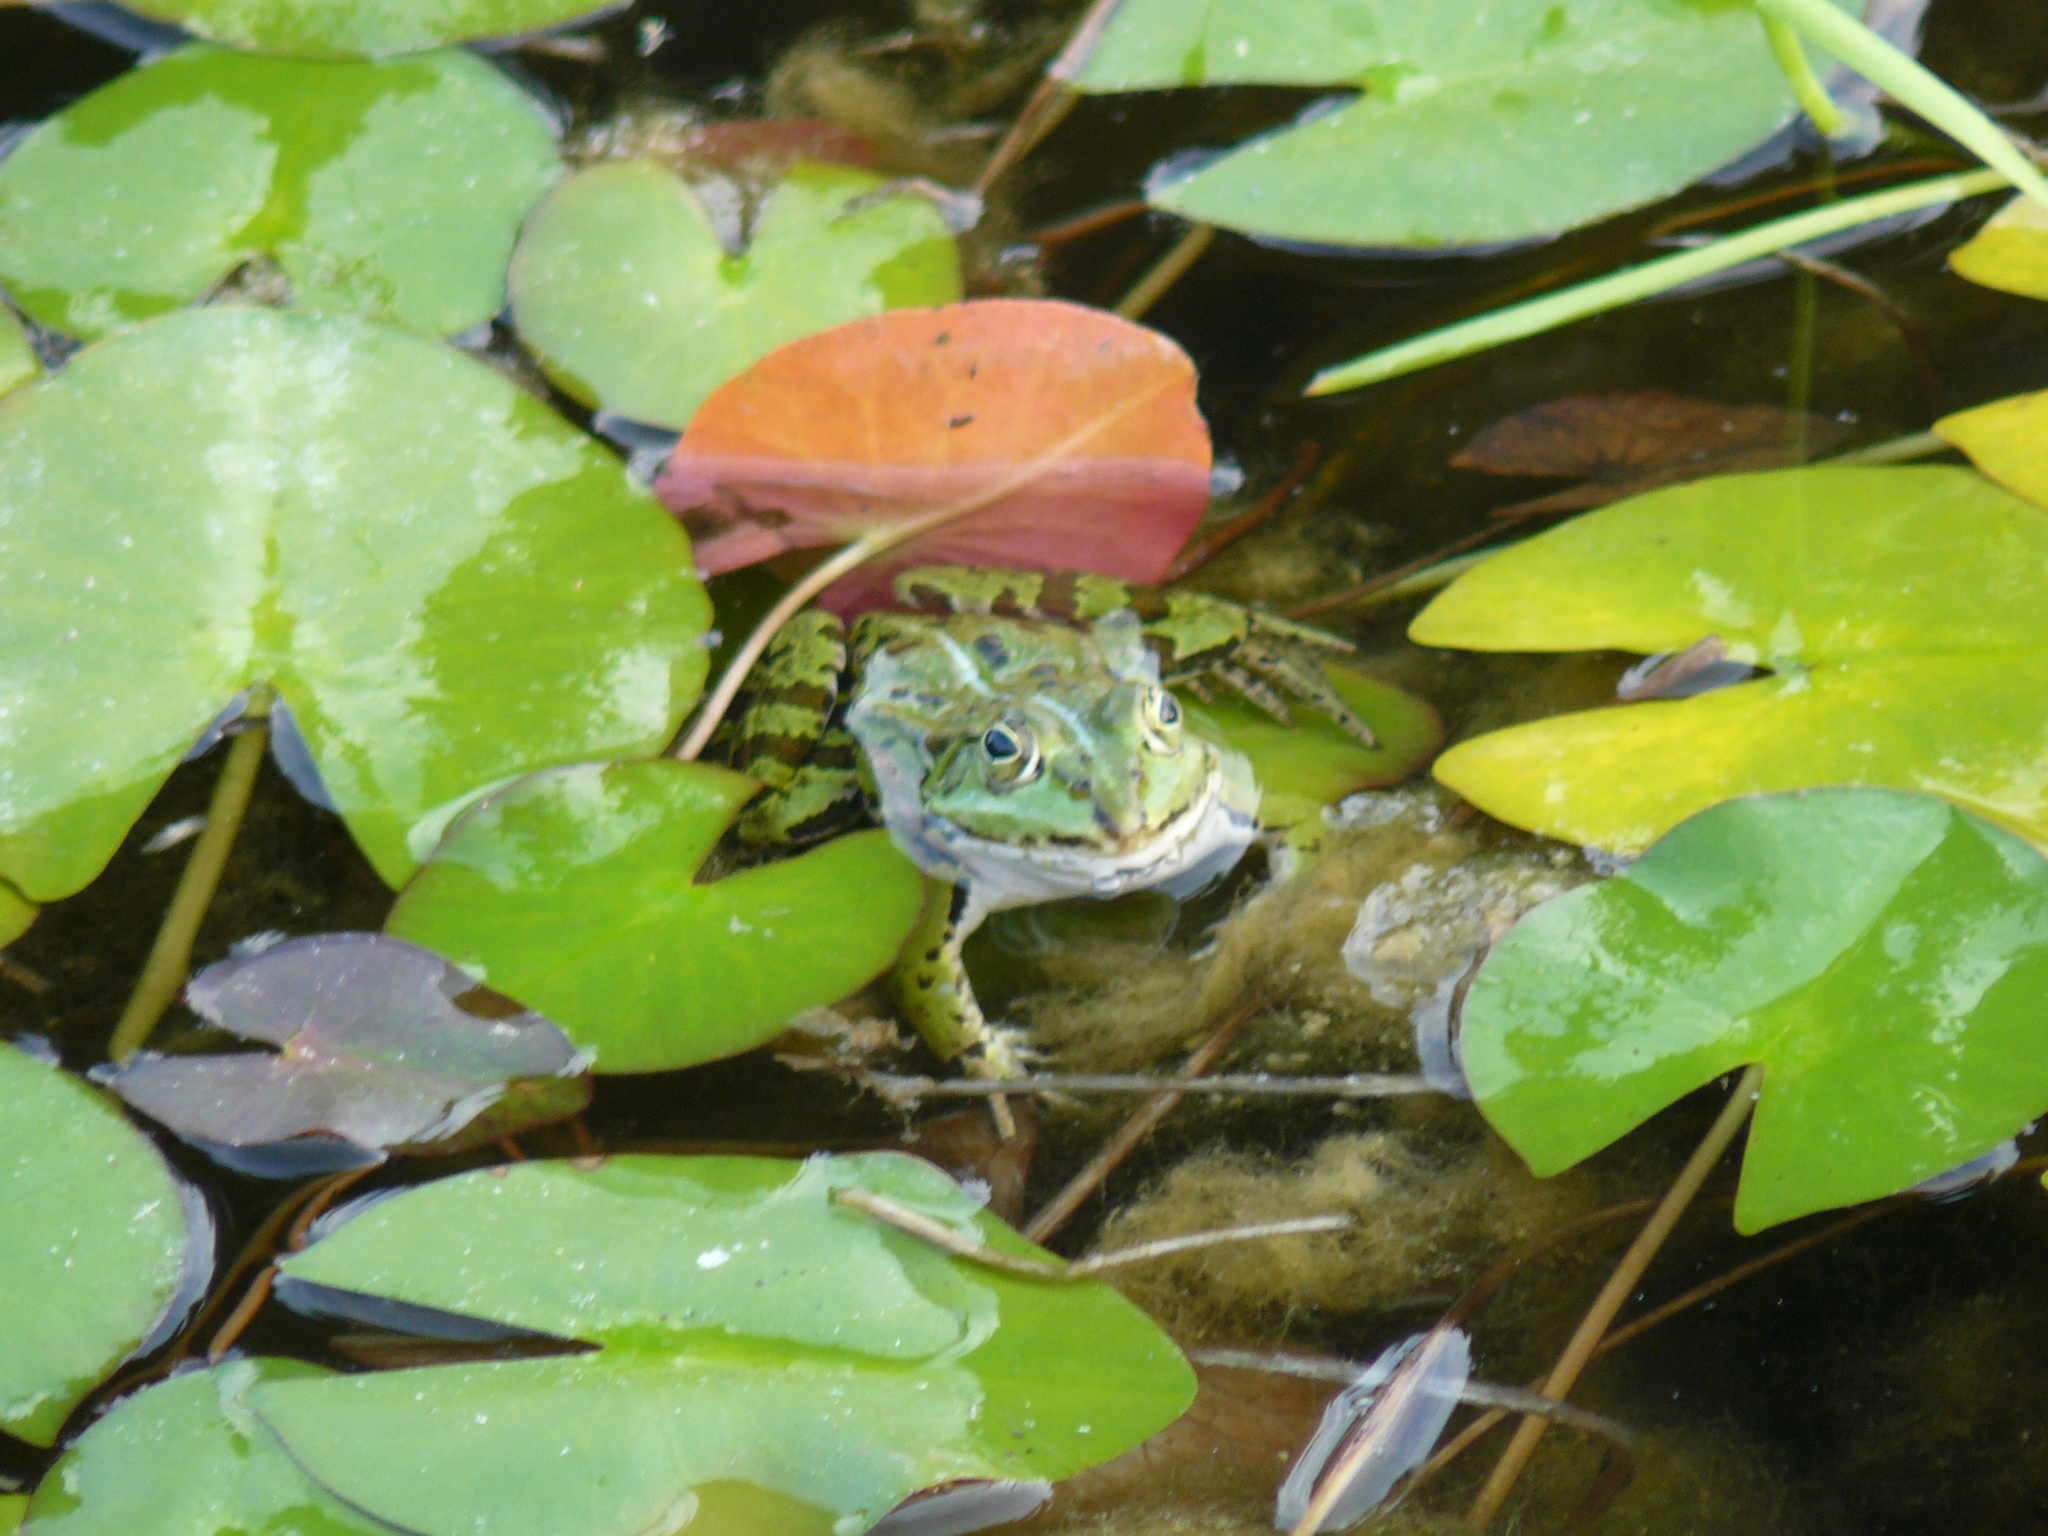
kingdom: Animalia
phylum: Chordata
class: Amphibia
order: Anura
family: Ranidae
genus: Pelophylax
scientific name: Pelophylax
